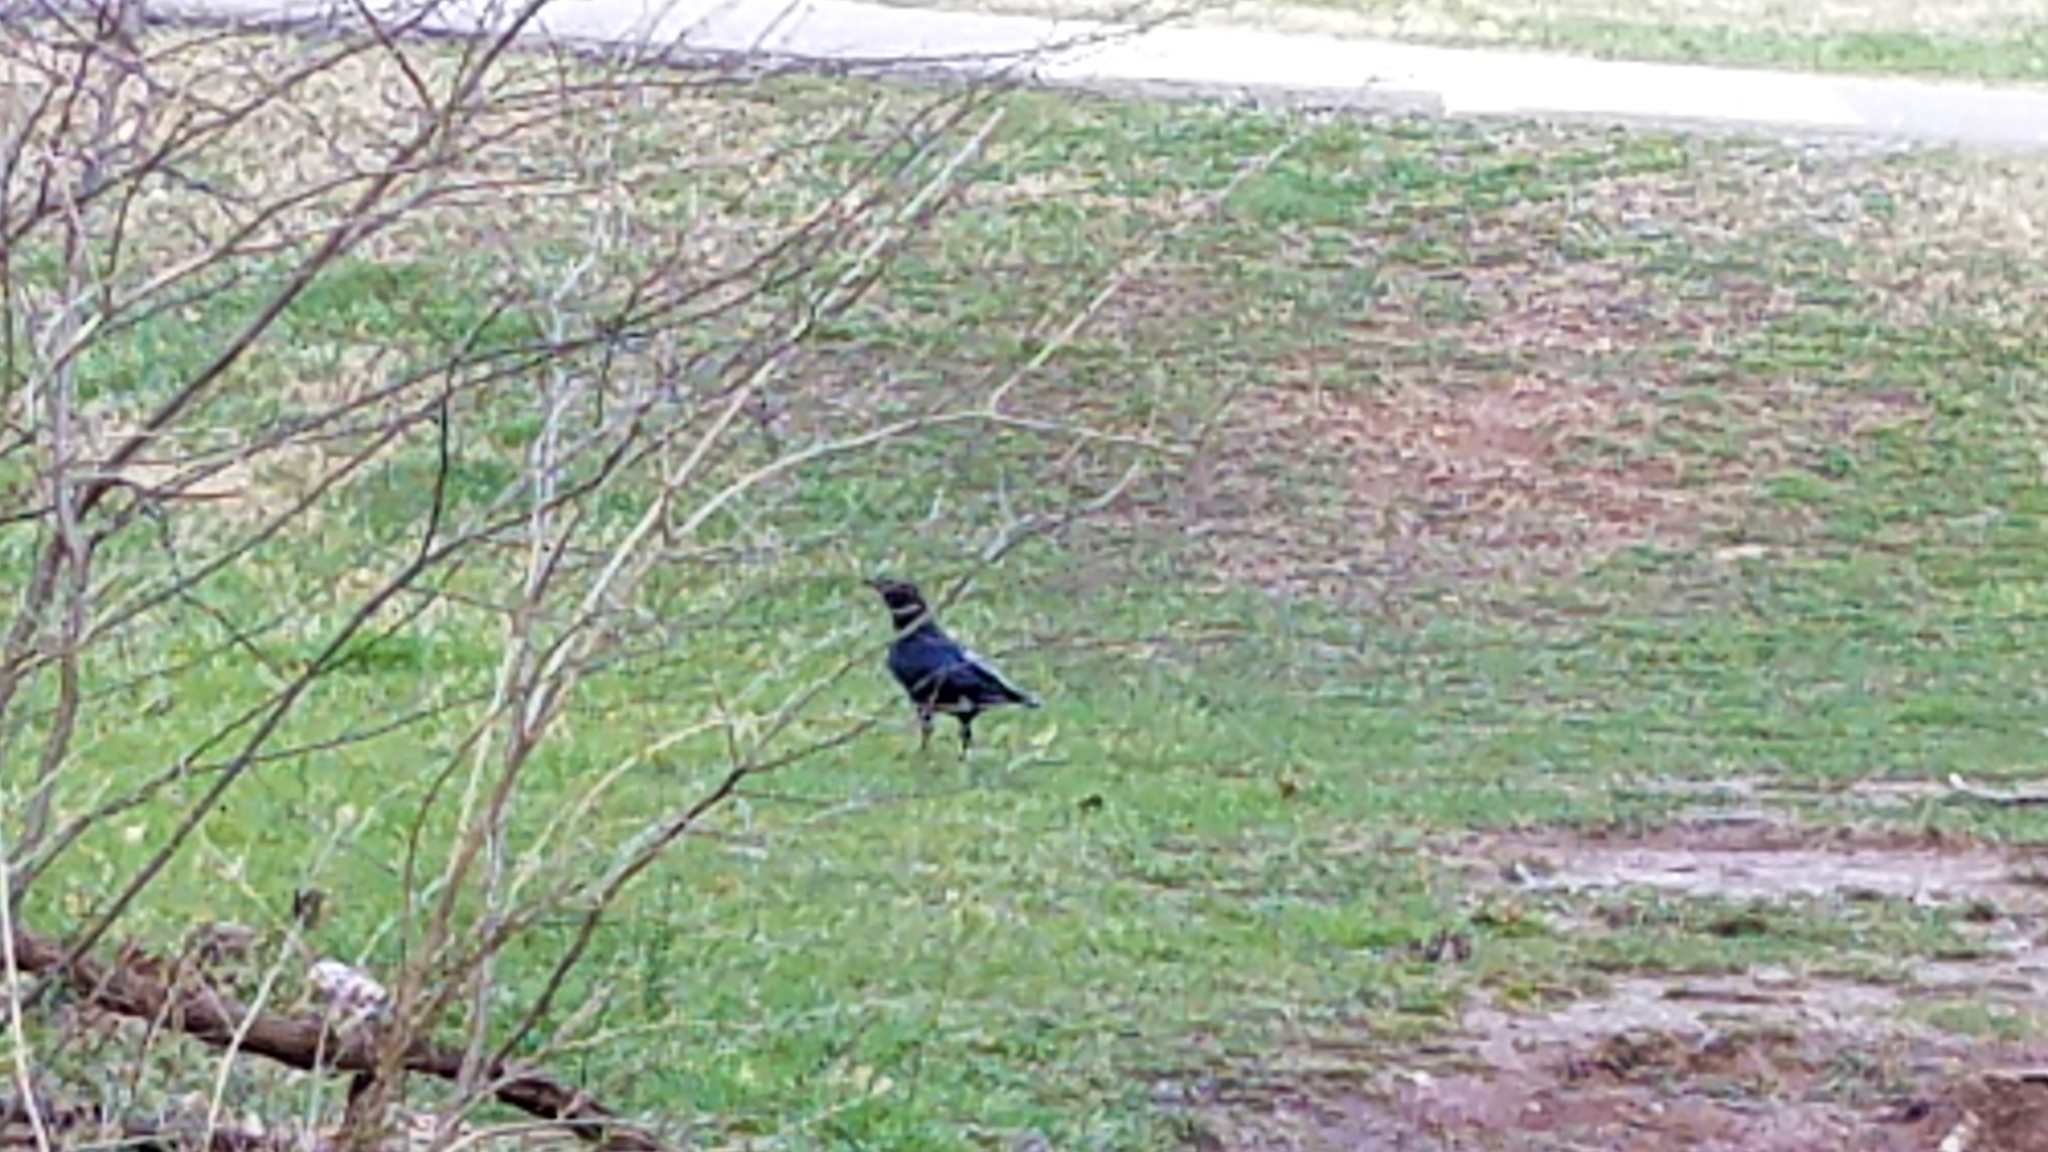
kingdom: Animalia
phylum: Chordata
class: Aves
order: Passeriformes
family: Corvidae
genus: Corvus
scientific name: Corvus brachyrhynchos
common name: American crow
